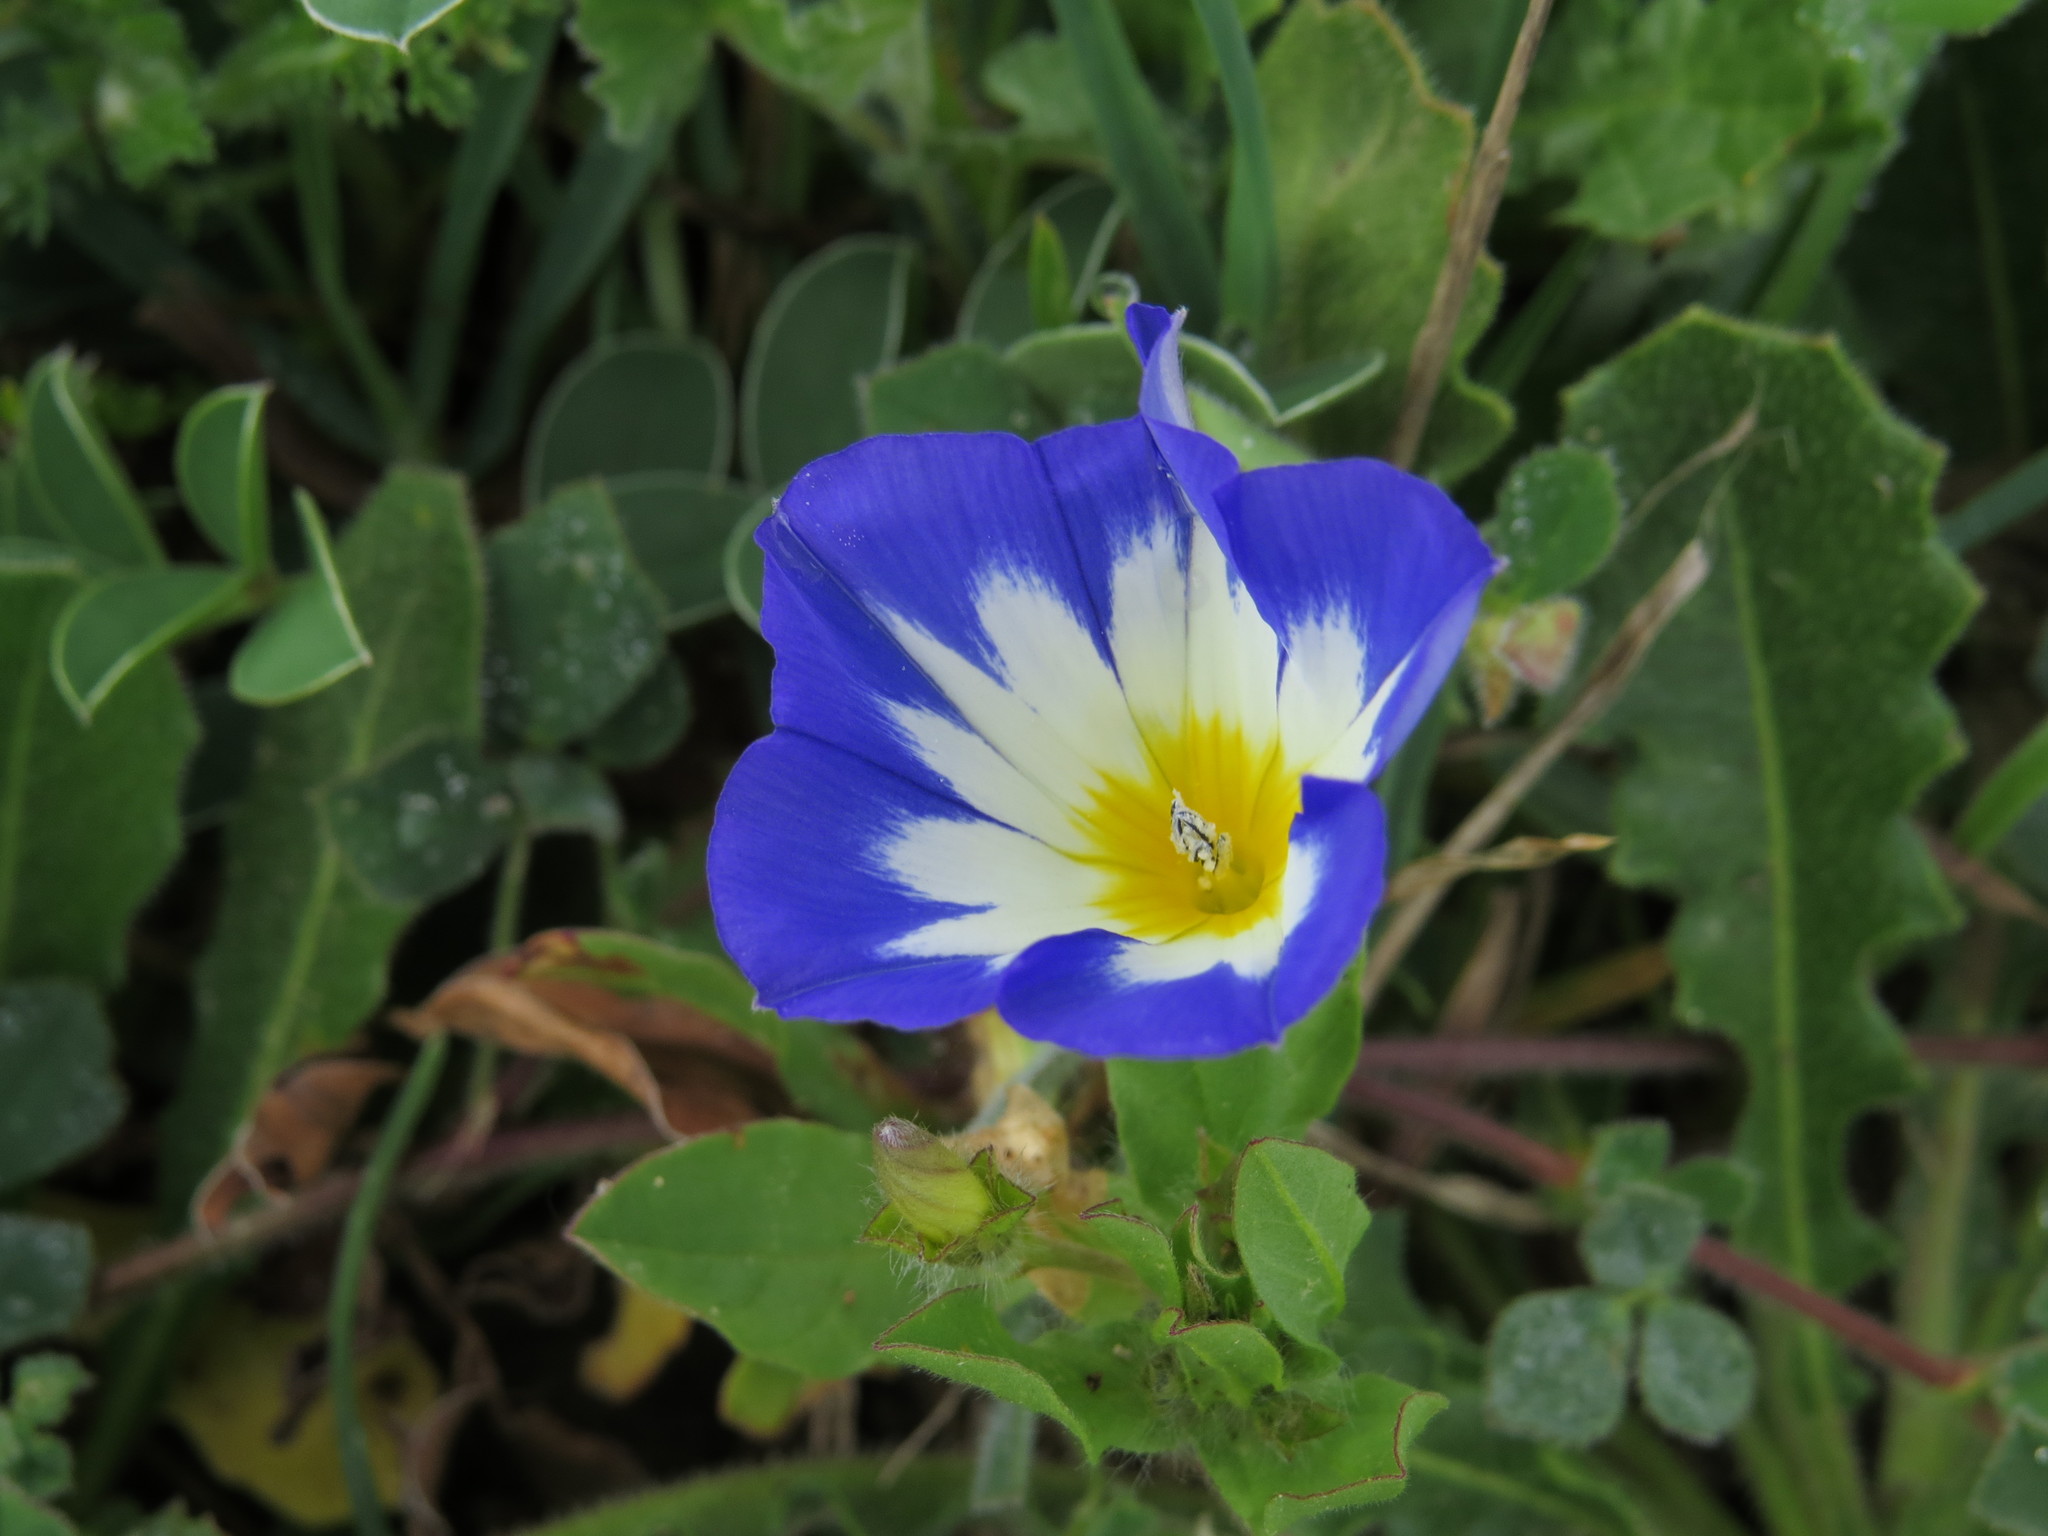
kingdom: Plantae
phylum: Tracheophyta
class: Magnoliopsida
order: Solanales
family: Convolvulaceae
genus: Convolvulus
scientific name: Convolvulus tricolor
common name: Dwarf morning-glory
